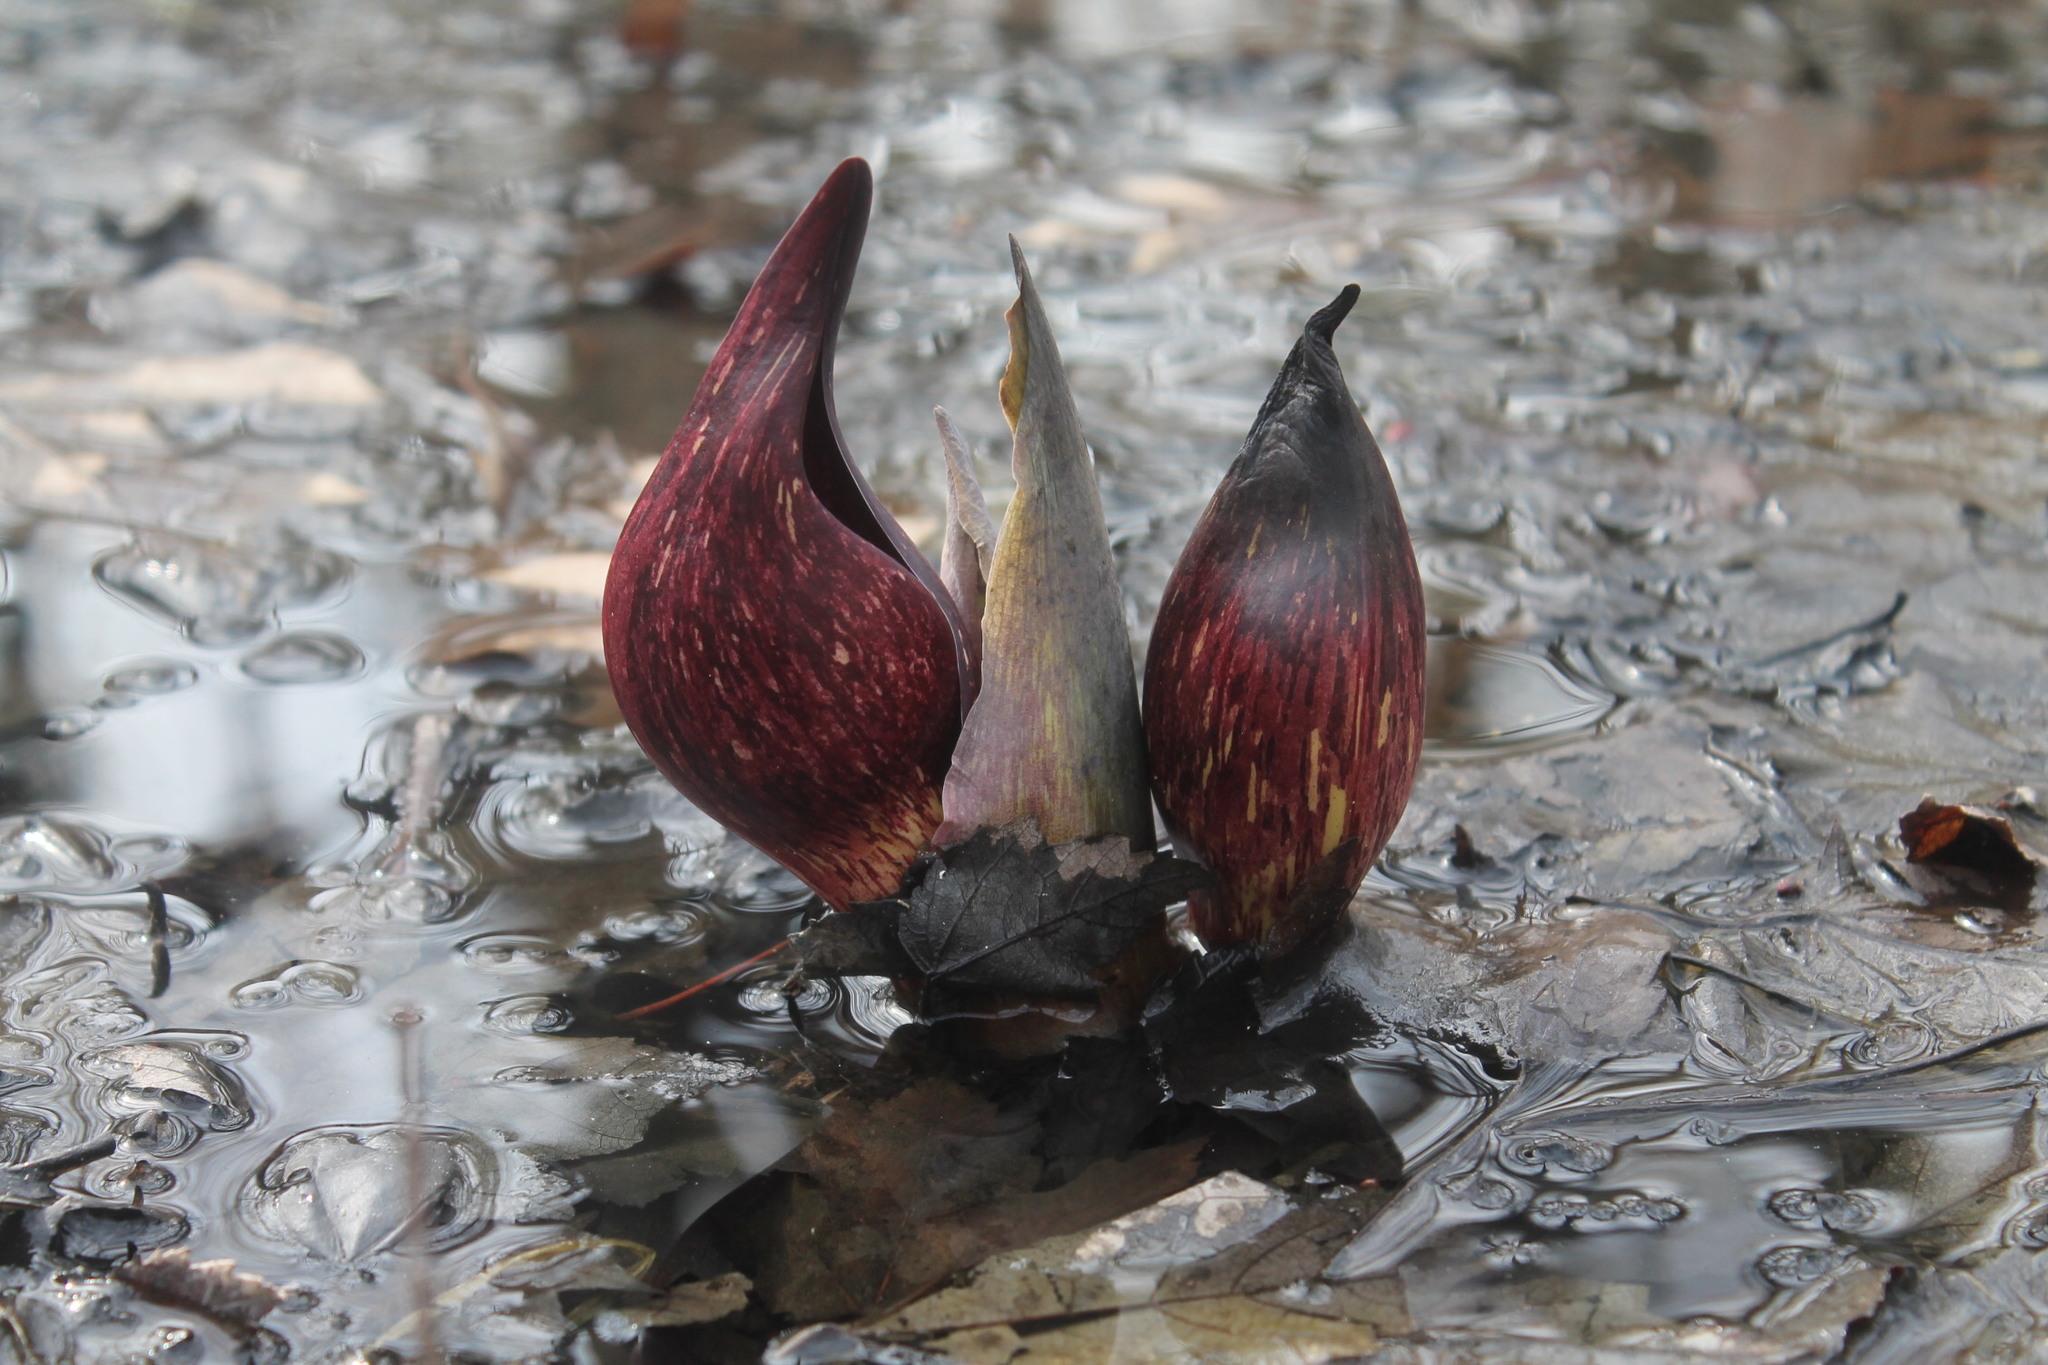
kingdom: Plantae
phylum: Tracheophyta
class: Liliopsida
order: Alismatales
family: Araceae
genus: Symplocarpus
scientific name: Symplocarpus foetidus
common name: Eastern skunk cabbage
